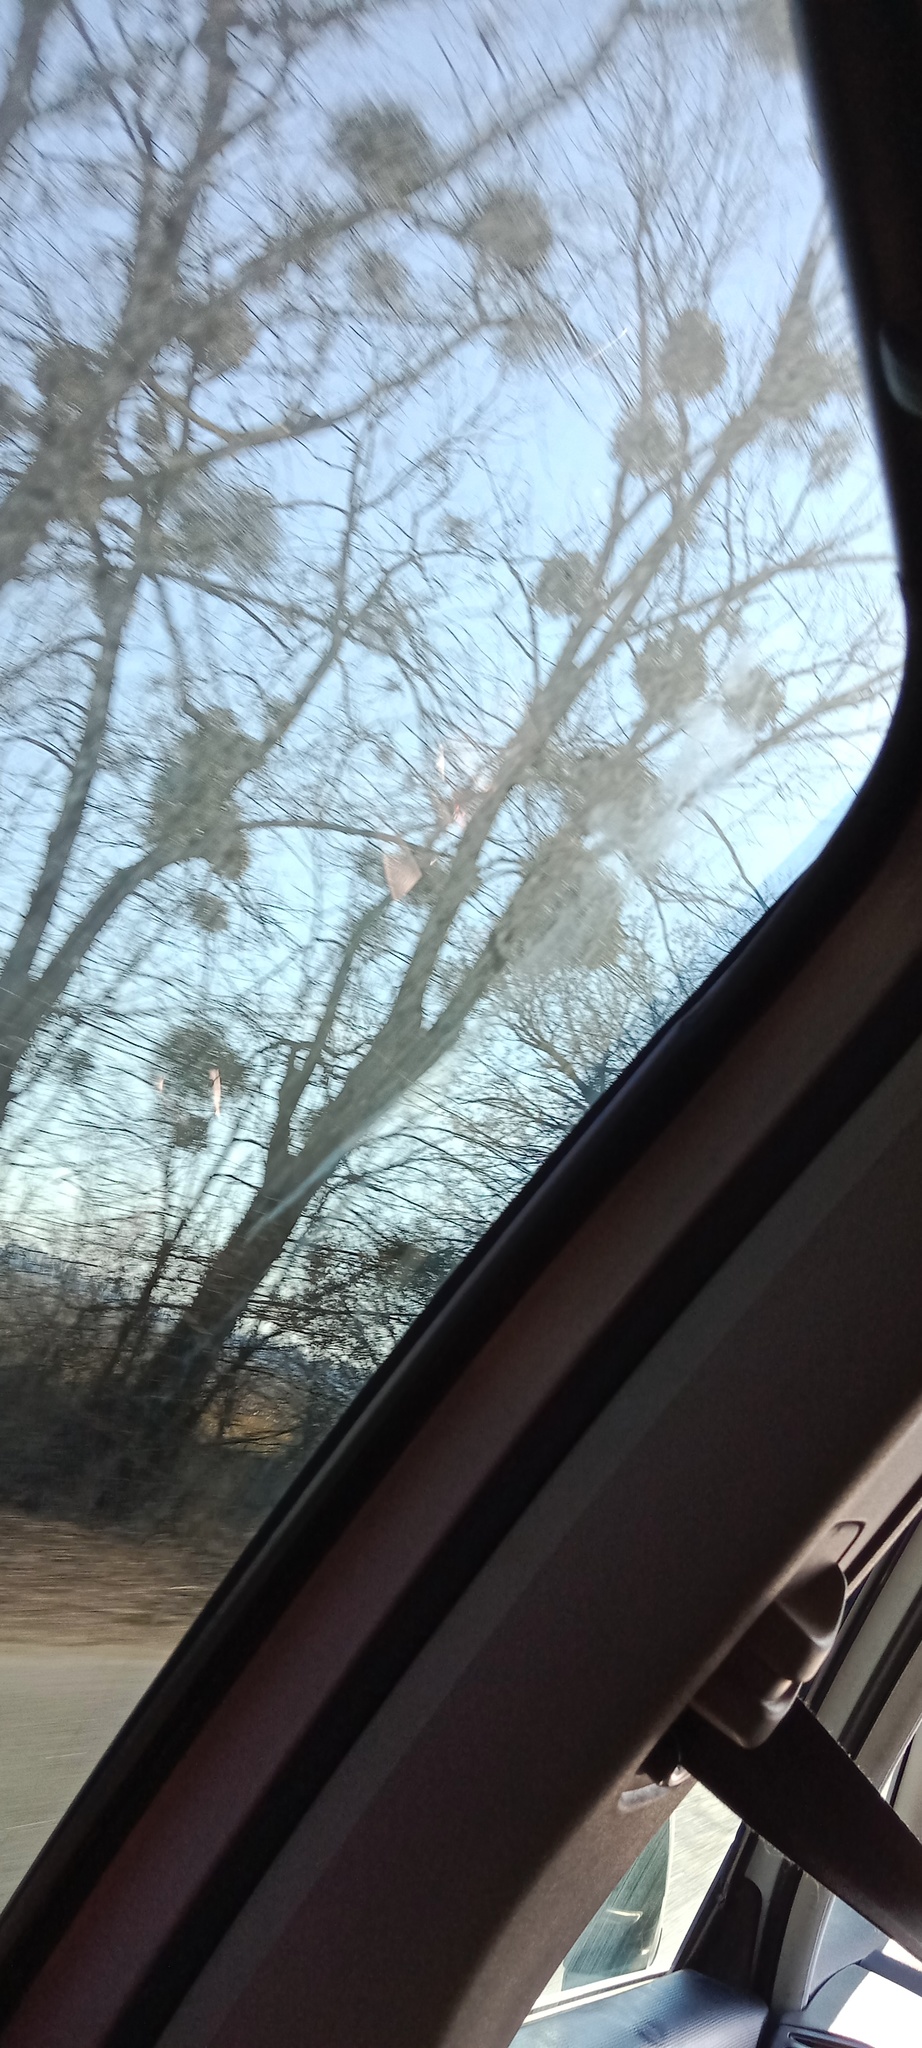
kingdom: Plantae
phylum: Tracheophyta
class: Magnoliopsida
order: Santalales
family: Viscaceae
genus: Viscum
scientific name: Viscum album
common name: Mistletoe
